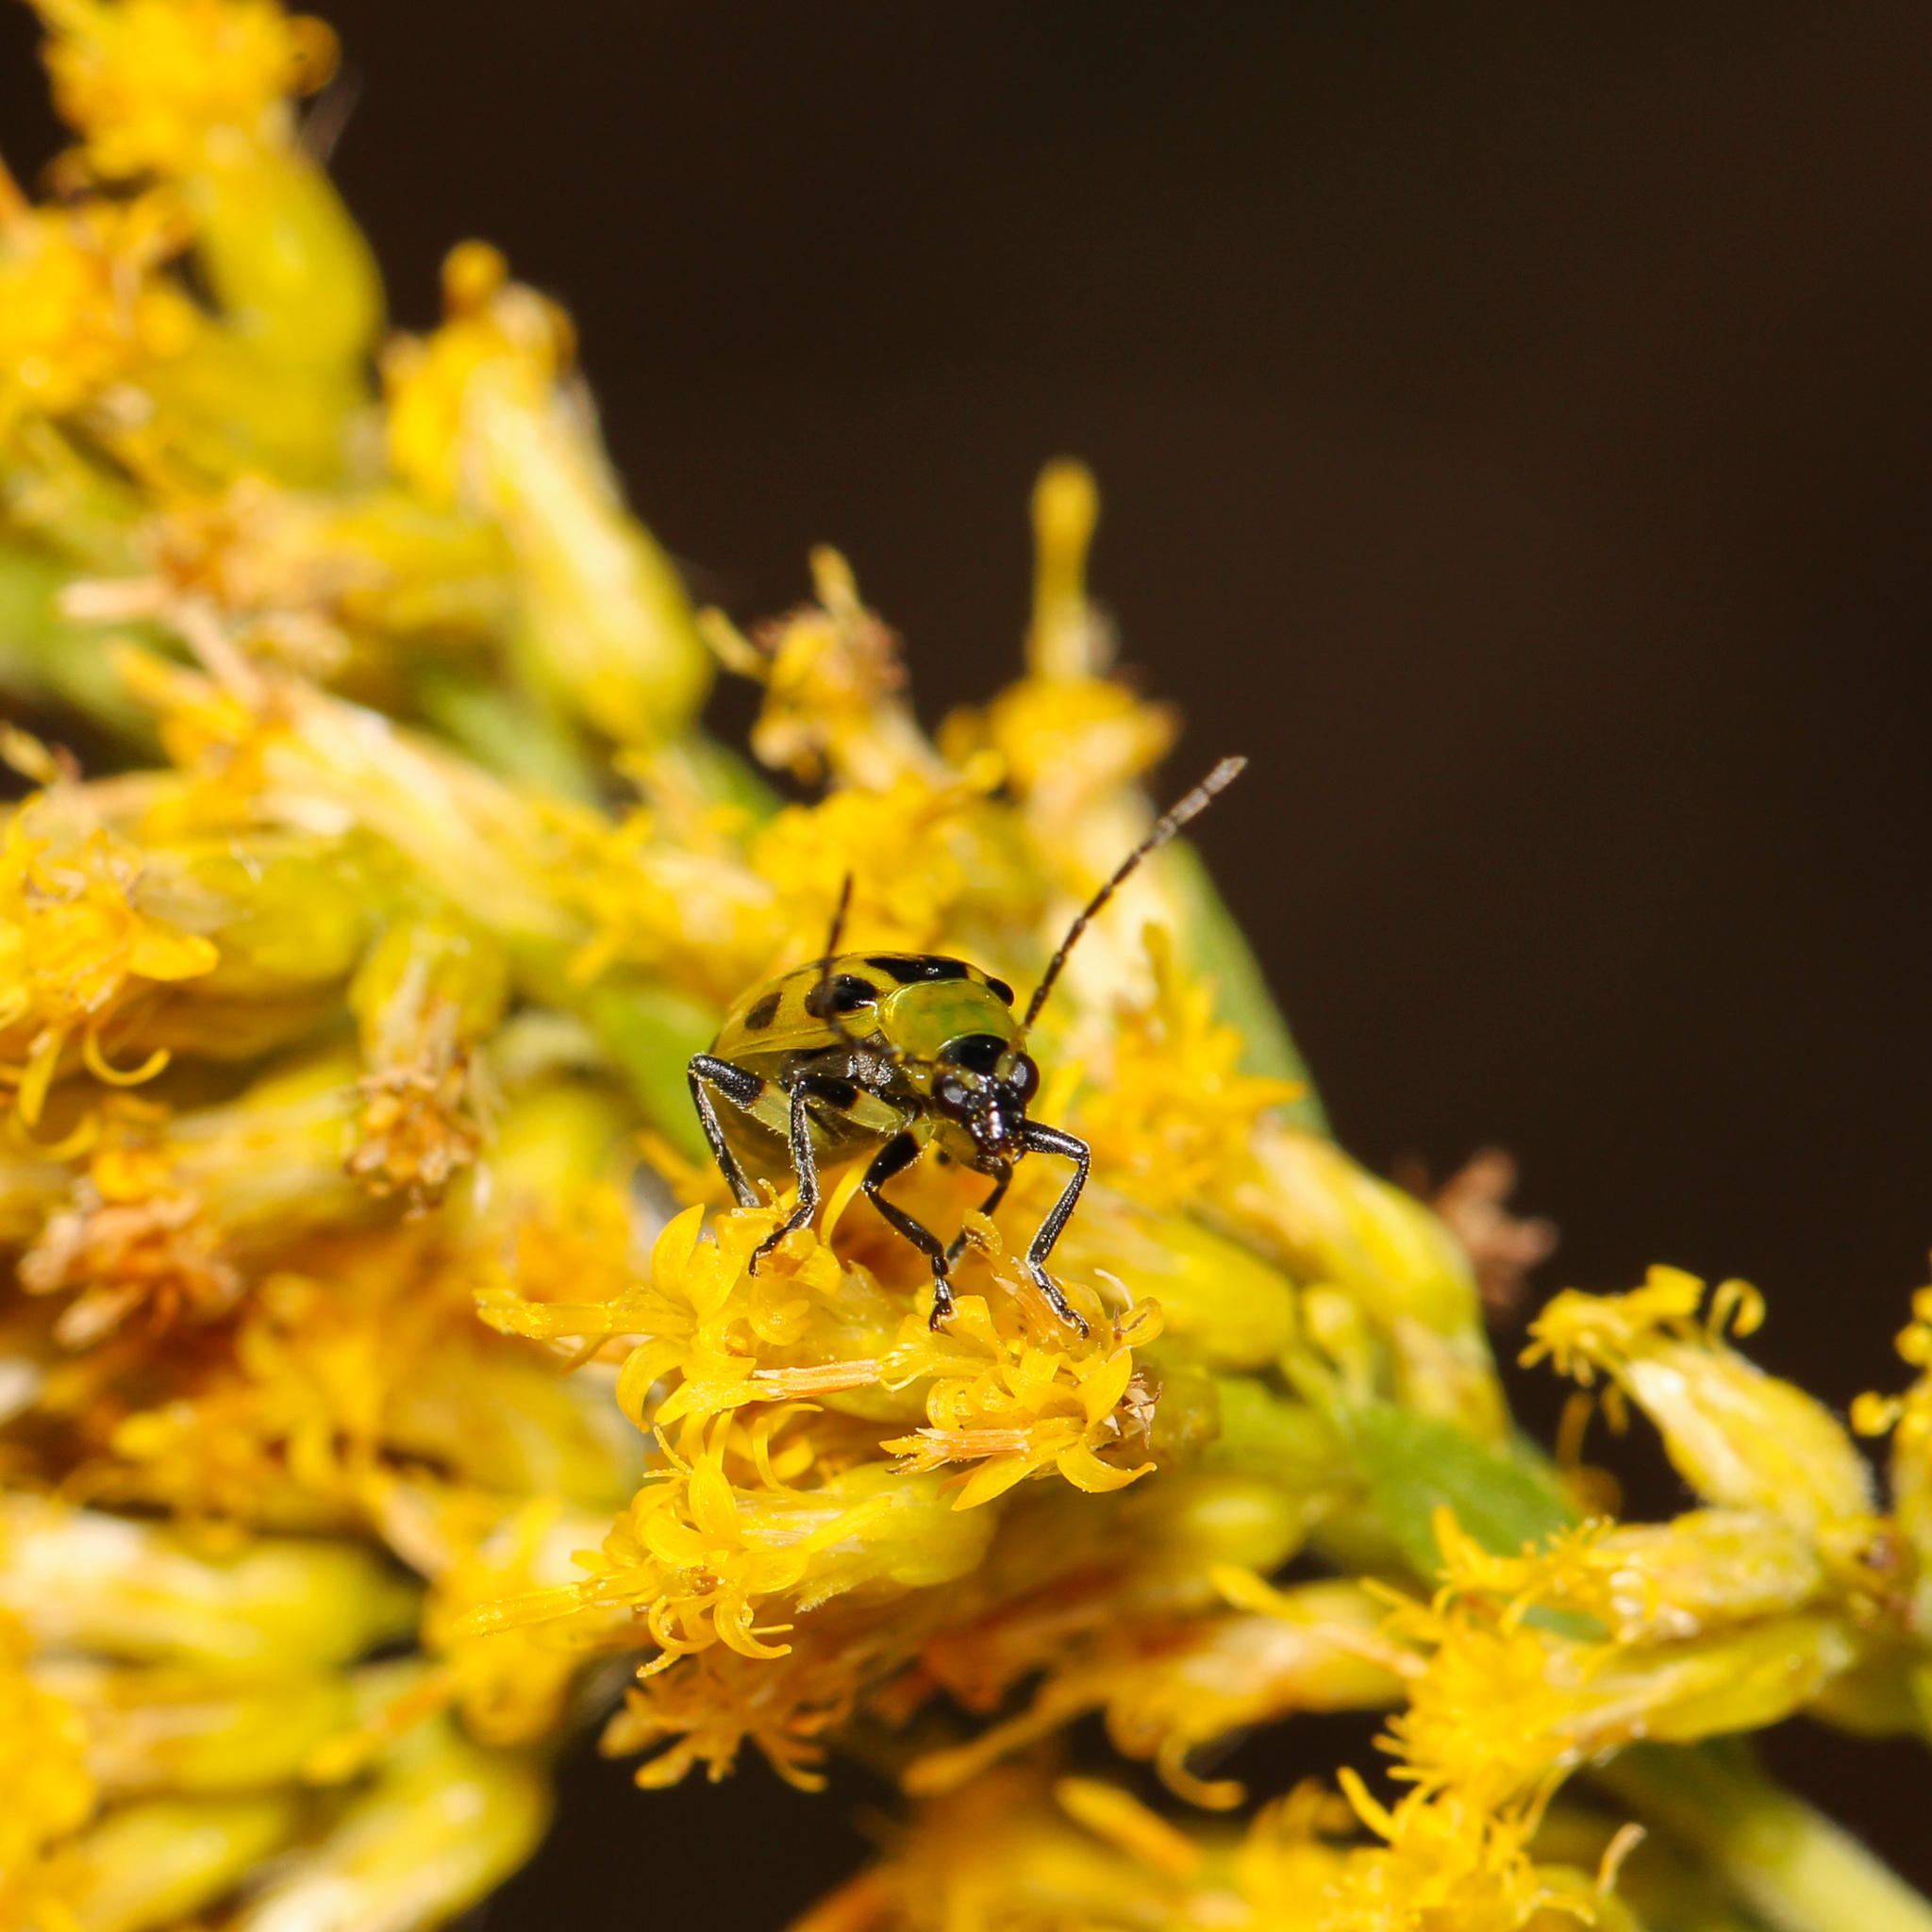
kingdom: Animalia
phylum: Arthropoda
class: Insecta
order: Coleoptera
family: Chrysomelidae
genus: Diabrotica
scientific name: Diabrotica undecimpunctata
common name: Spotted cucumber beetle
